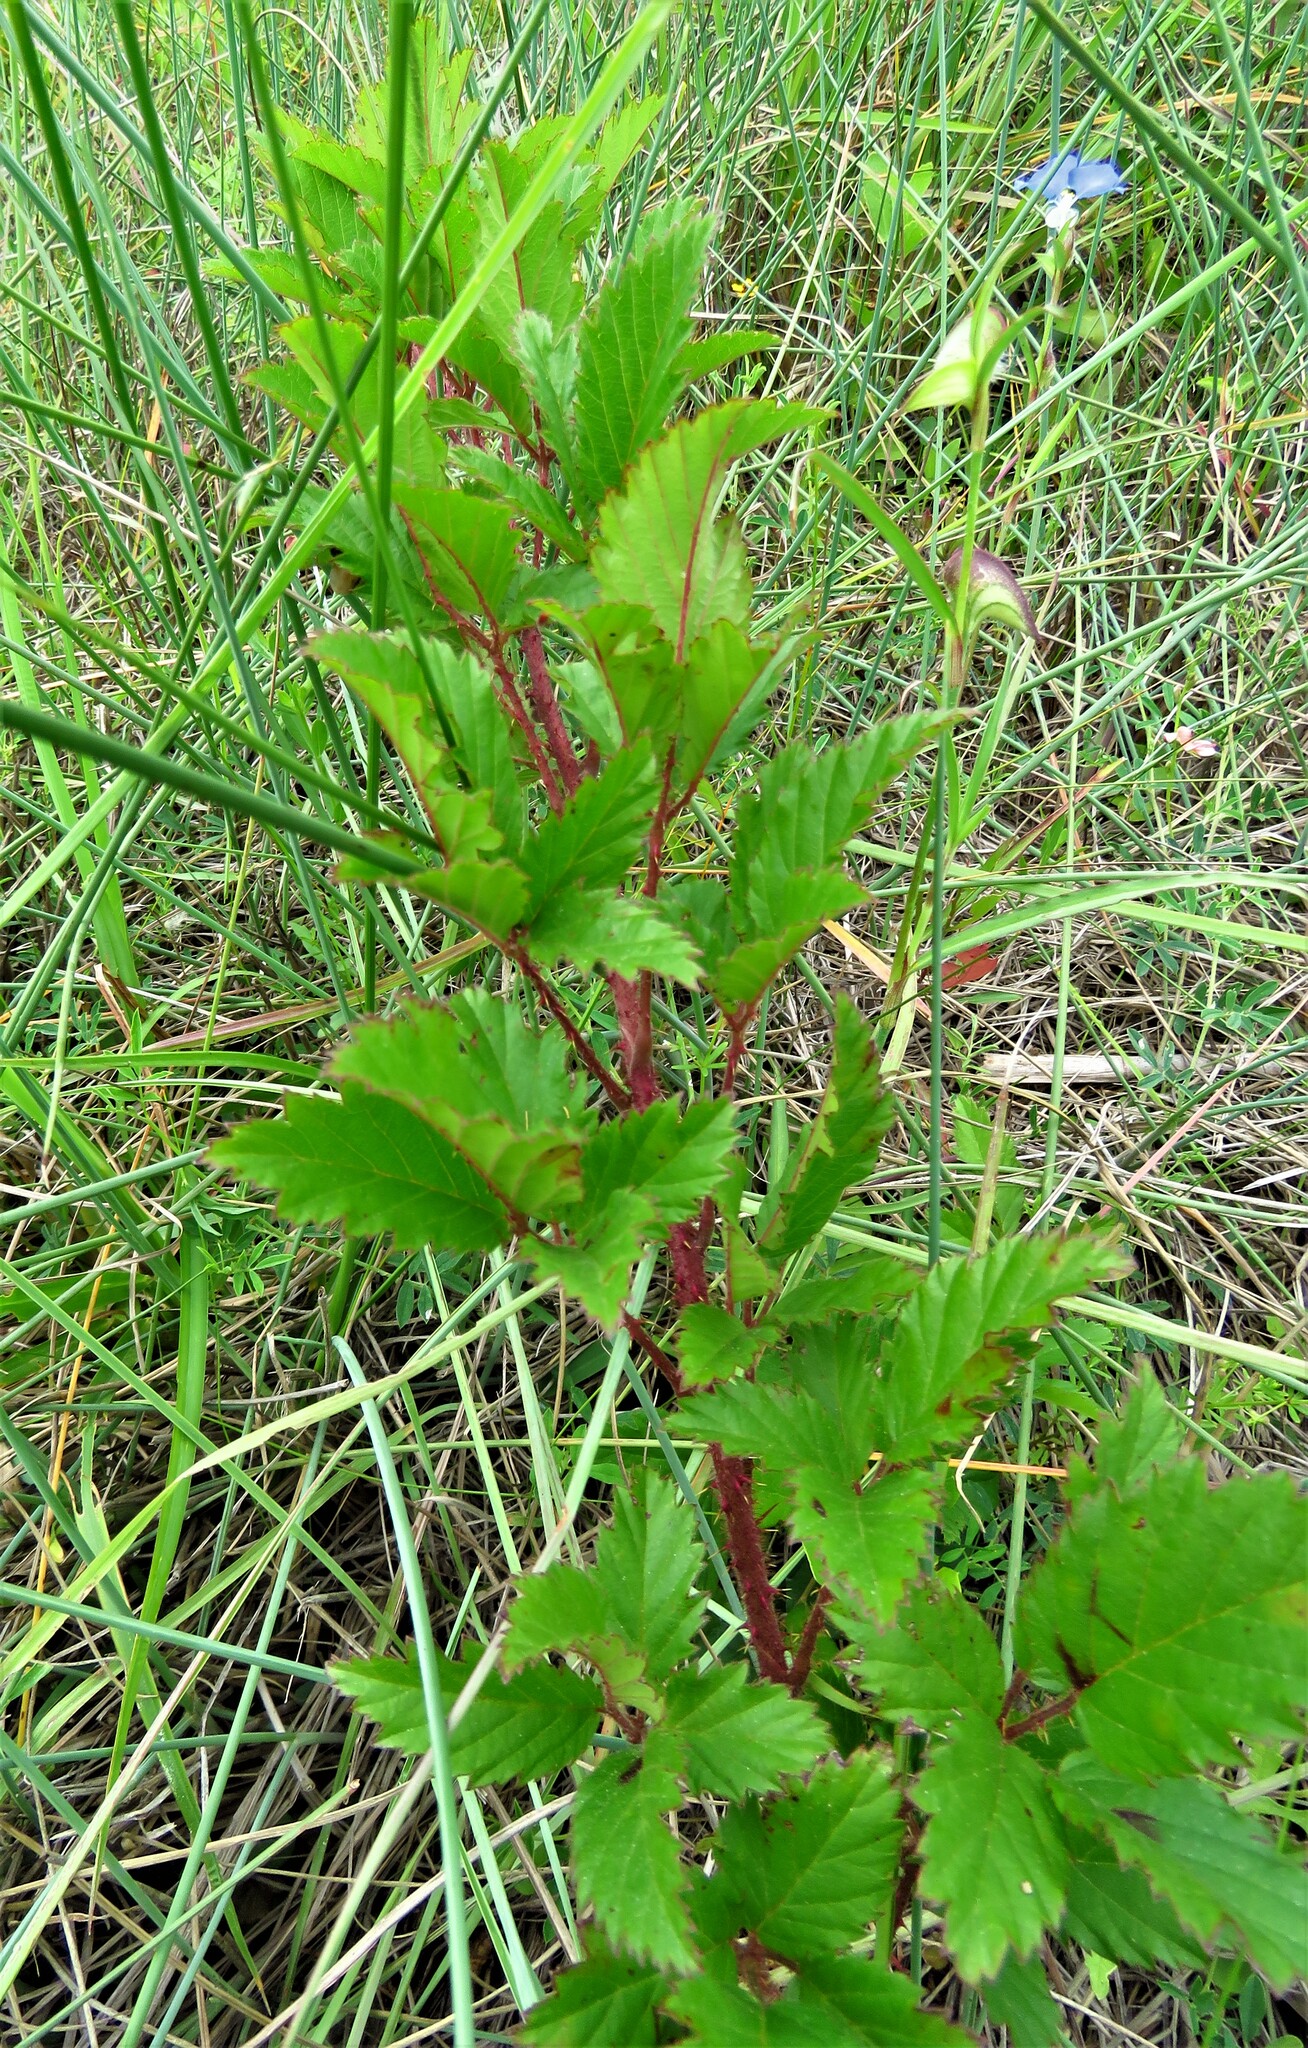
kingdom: Plantae
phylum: Tracheophyta
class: Magnoliopsida
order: Rosales
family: Rosaceae
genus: Rubus
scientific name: Rubus trivialis
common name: Southern dewberry
